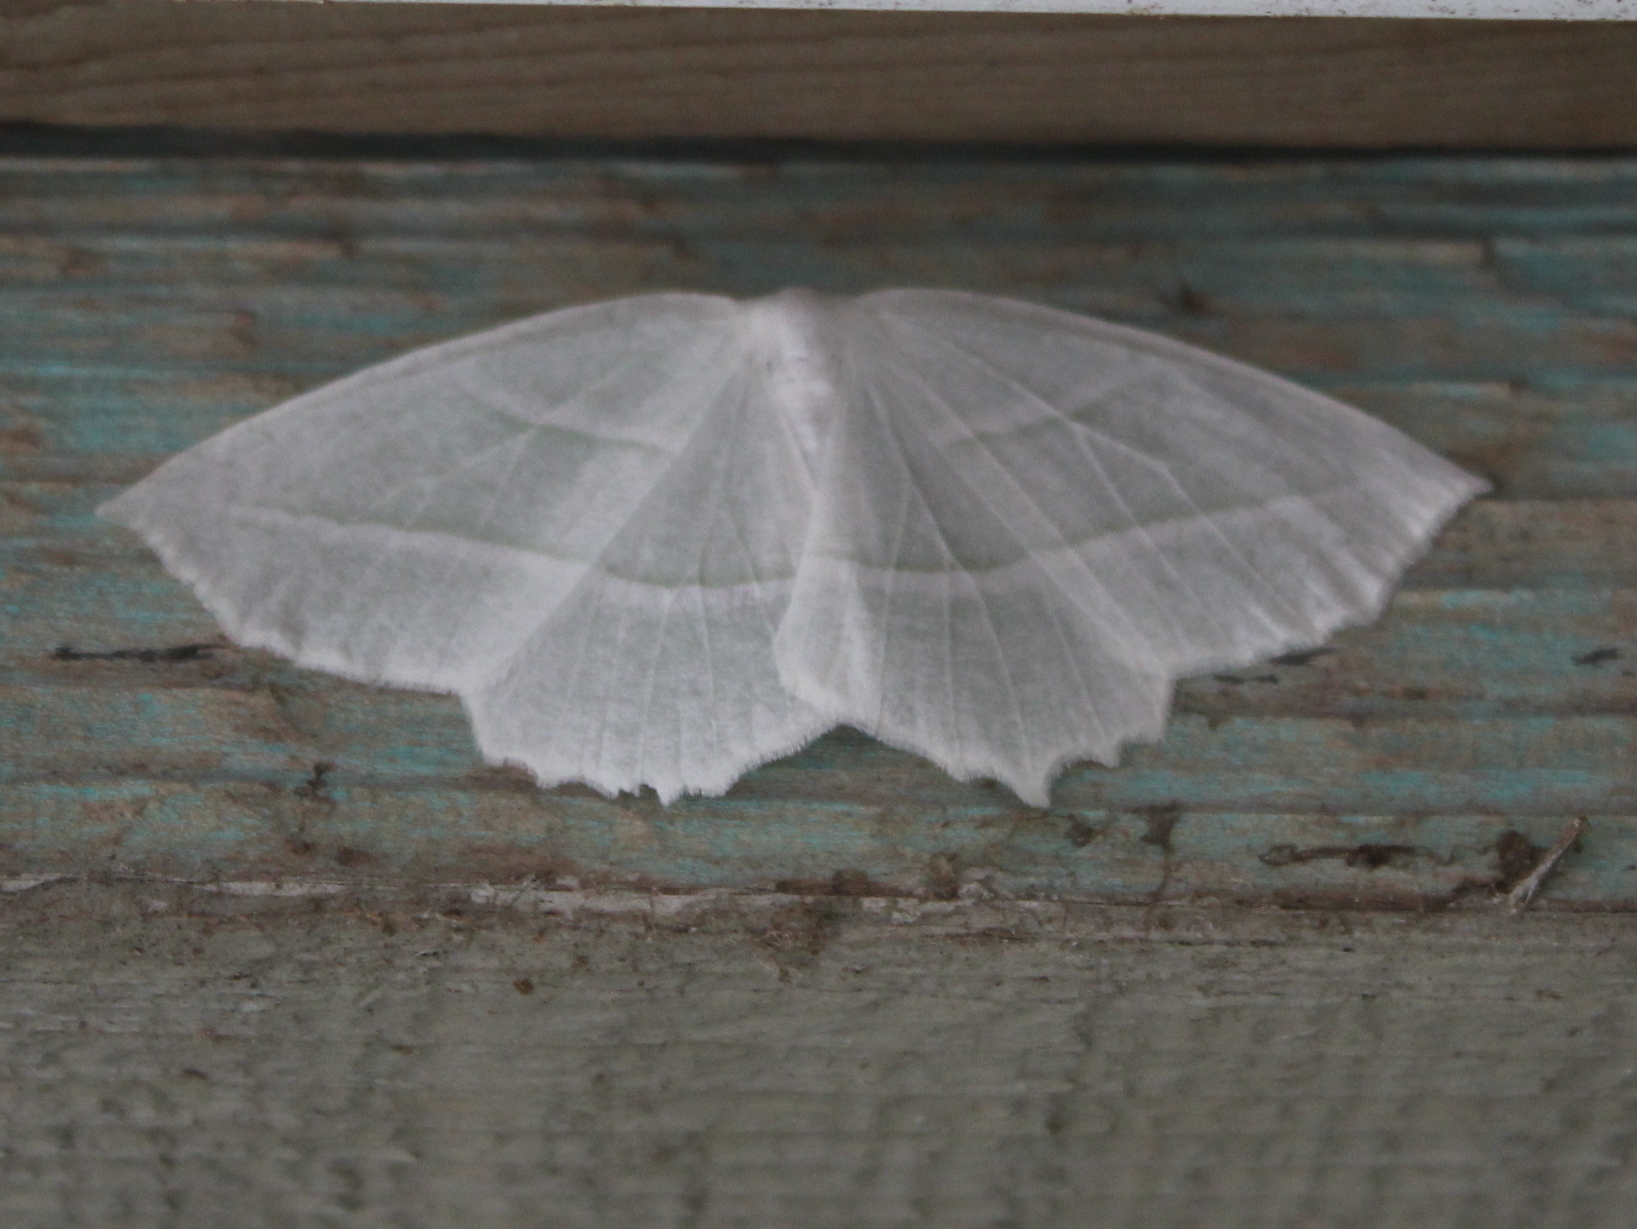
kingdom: Animalia
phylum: Arthropoda
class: Insecta
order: Lepidoptera
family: Geometridae
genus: Campaea
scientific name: Campaea perlata
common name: Fringed looper
